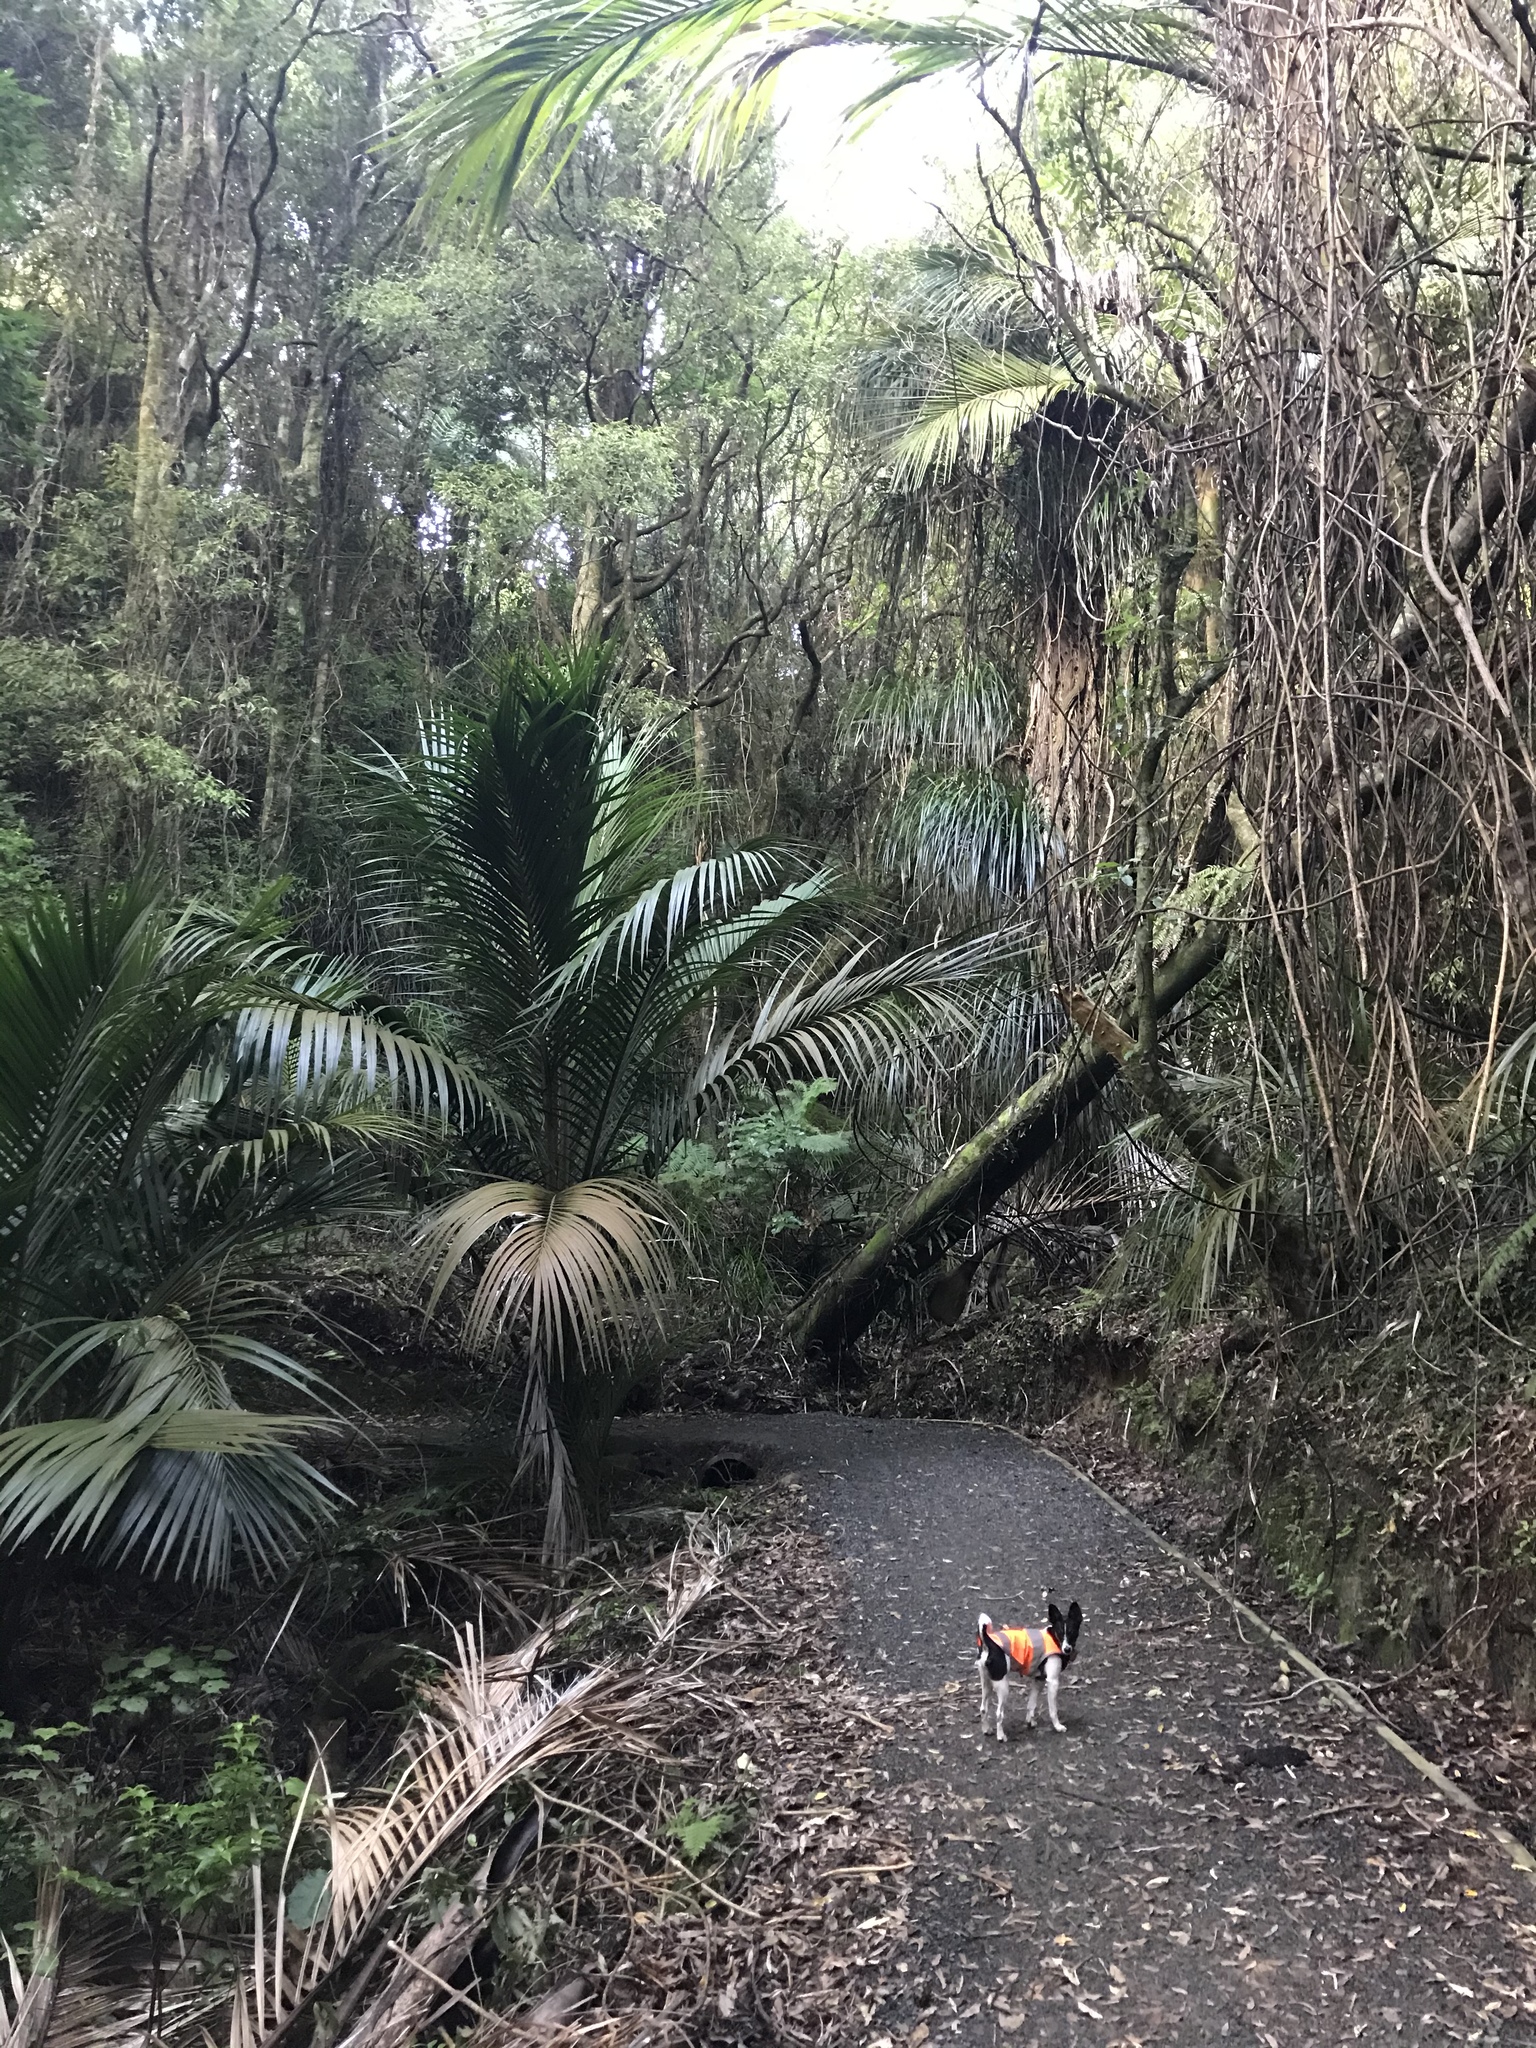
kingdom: Plantae
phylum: Tracheophyta
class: Liliopsida
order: Arecales
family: Arecaceae
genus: Rhopalostylis
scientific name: Rhopalostylis sapida
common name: Feather-duster palm
